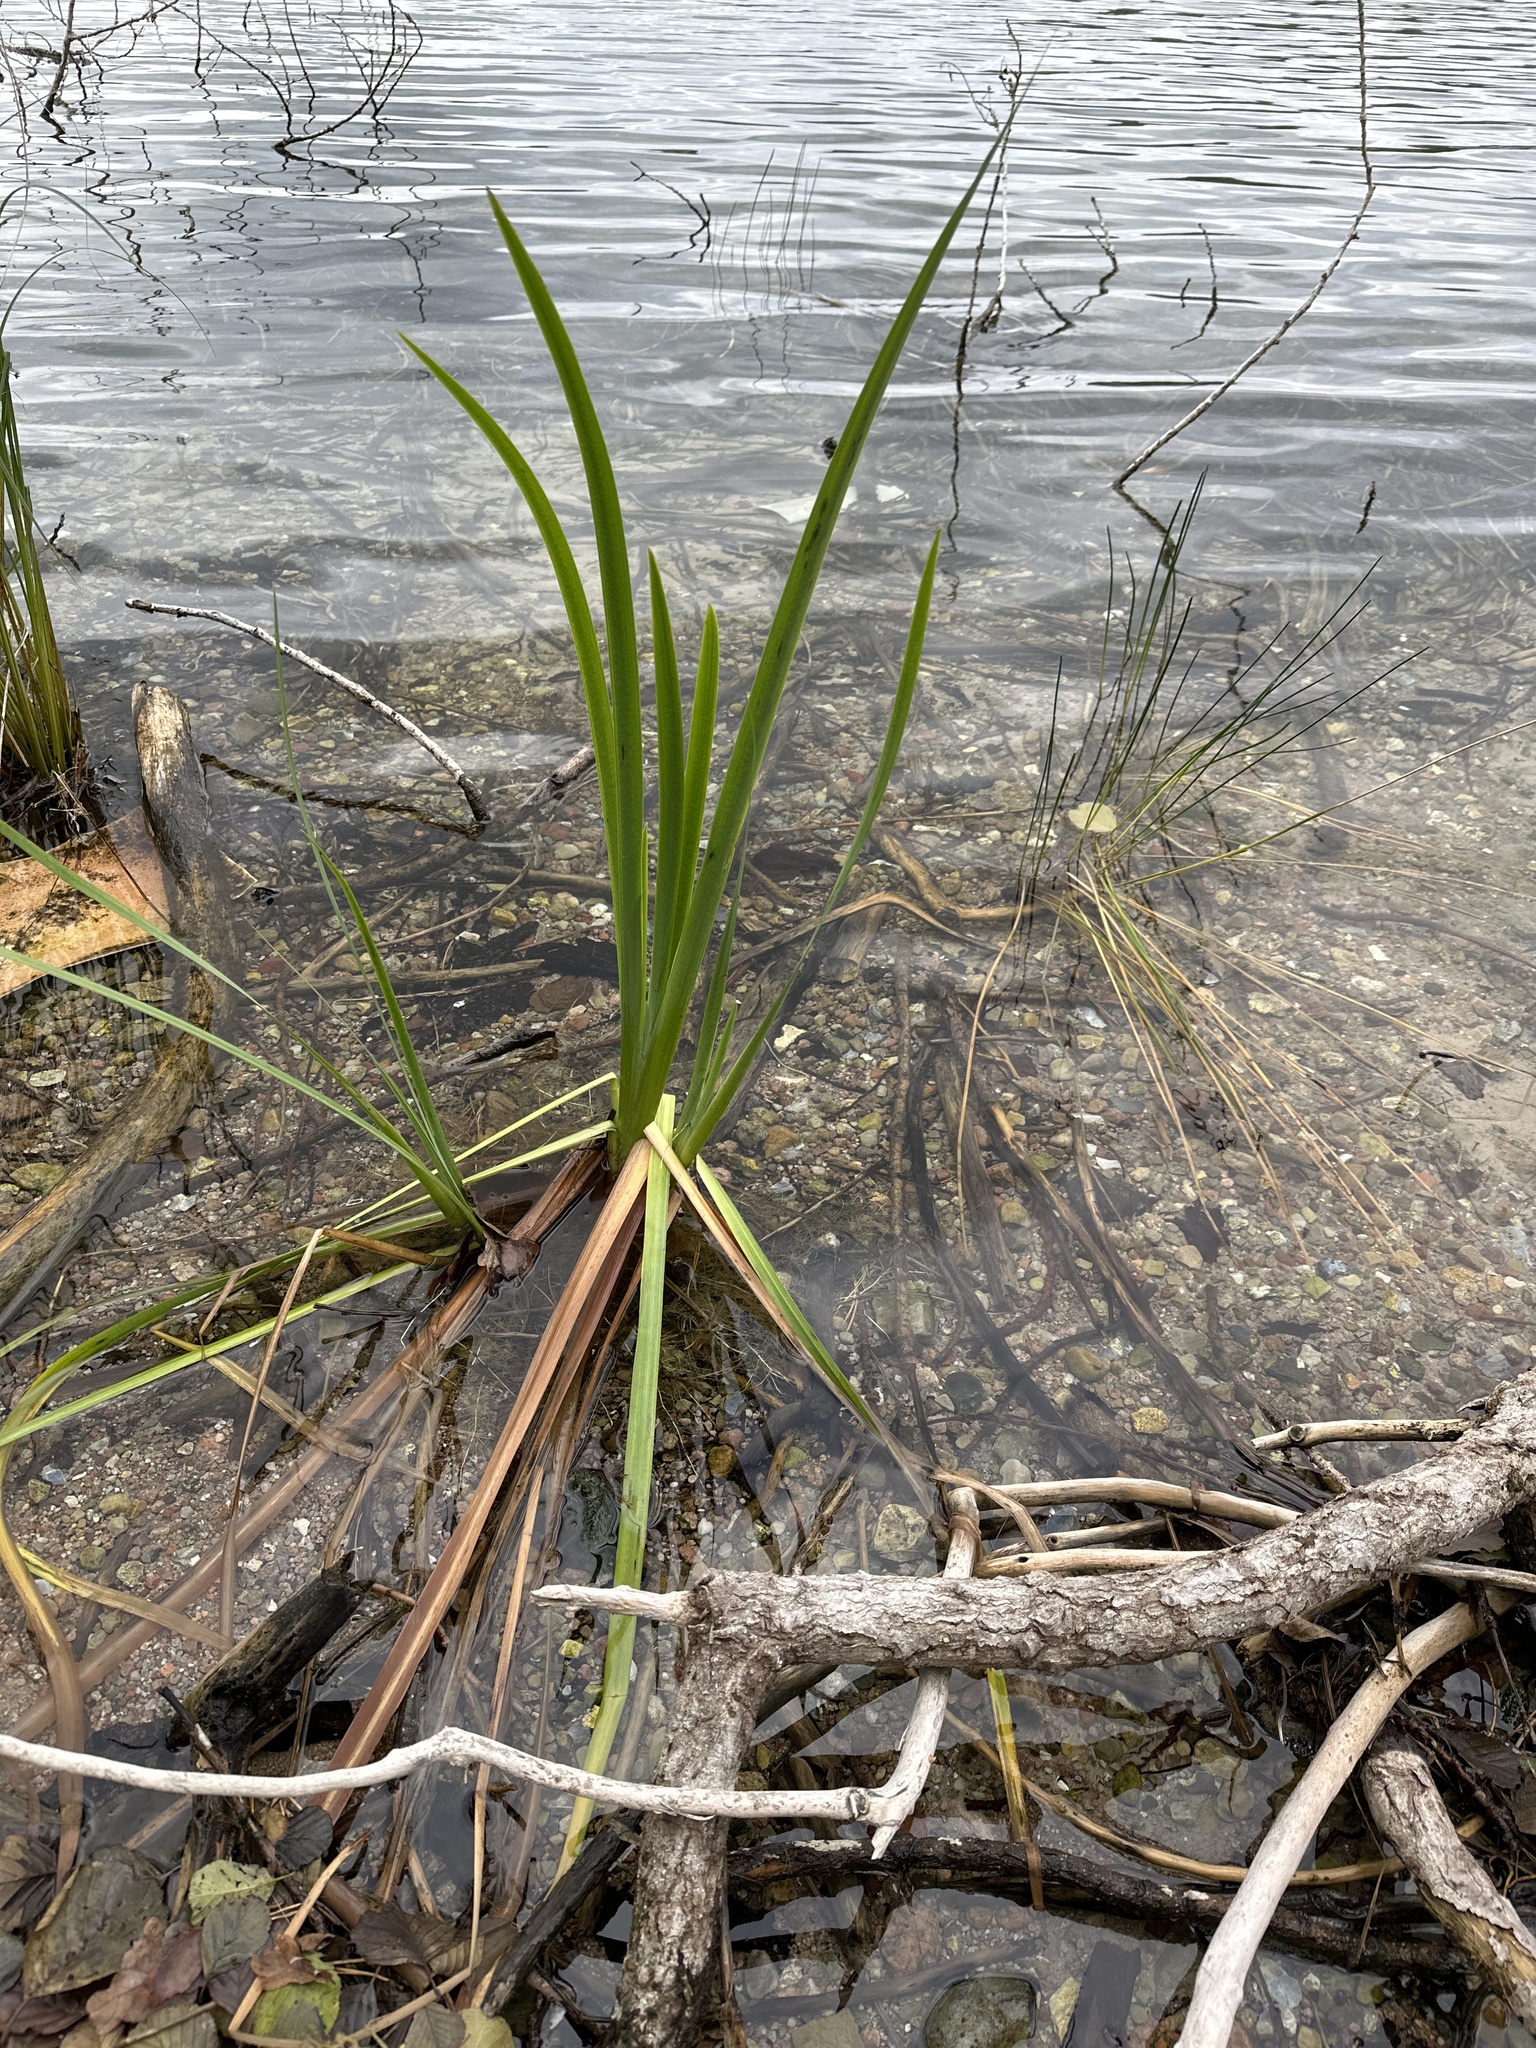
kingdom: Plantae
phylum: Tracheophyta
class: Liliopsida
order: Asparagales
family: Iridaceae
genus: Iris
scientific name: Iris pseudacorus
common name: Yellow flag
